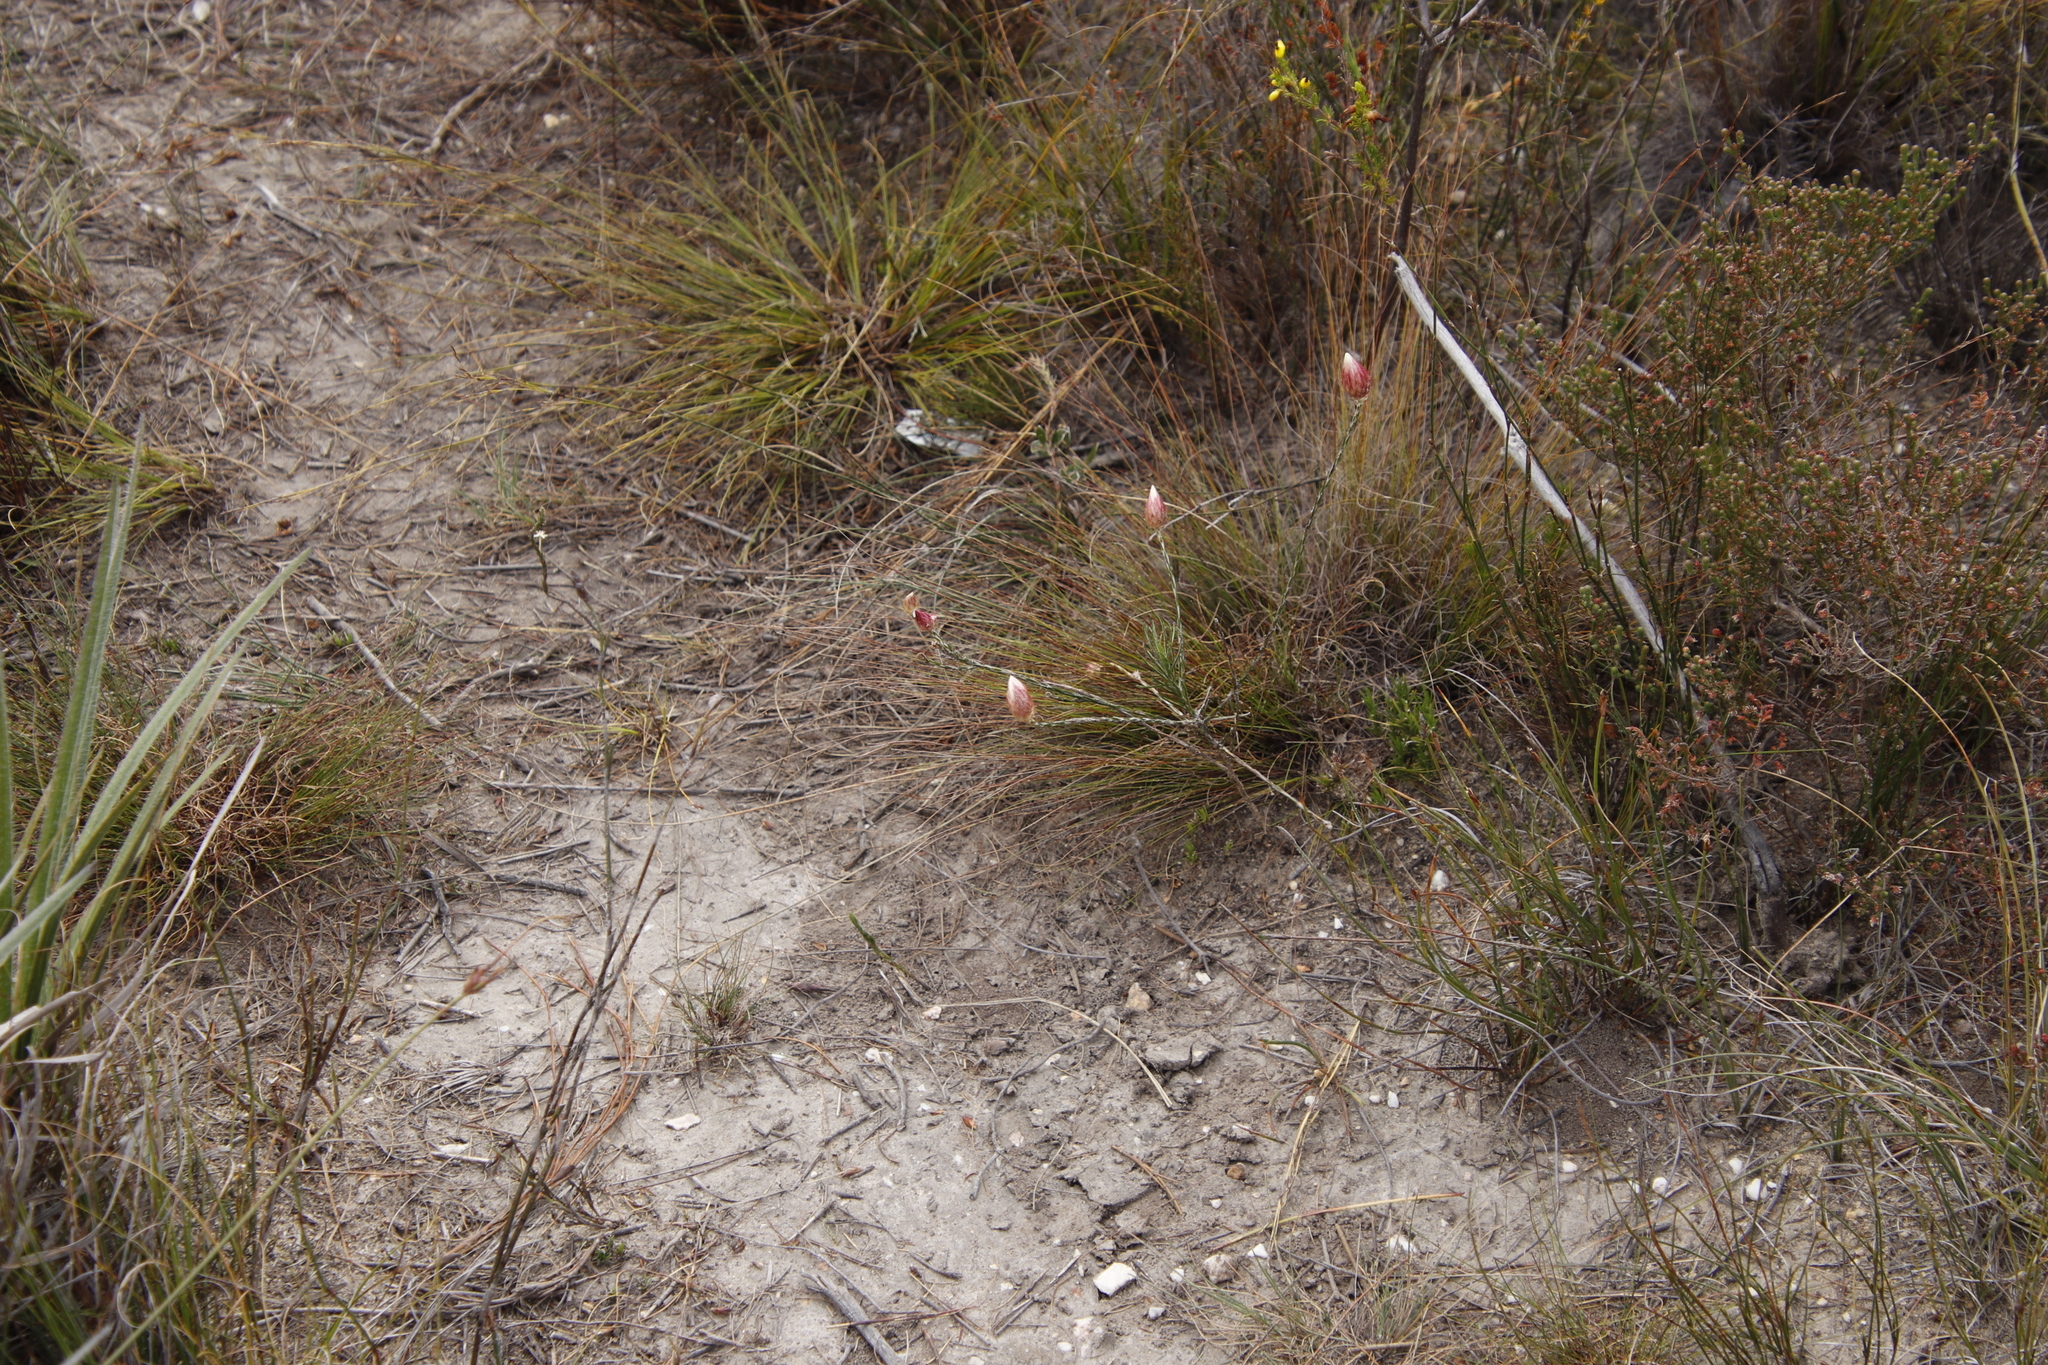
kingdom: Plantae
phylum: Tracheophyta
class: Magnoliopsida
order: Asterales
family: Asteraceae
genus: Edmondia
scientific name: Edmondia sesamoides
